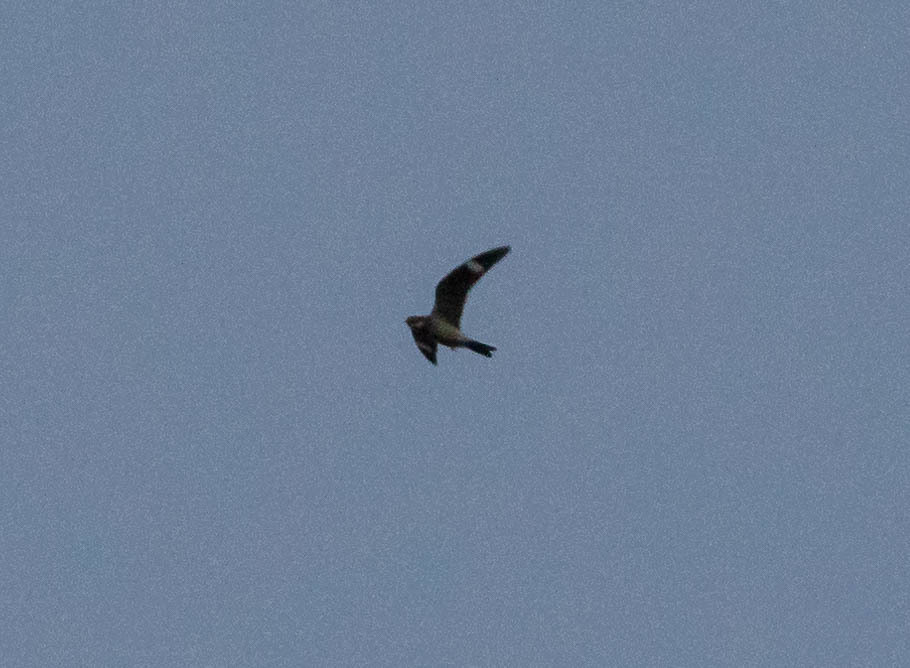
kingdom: Animalia
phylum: Chordata
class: Aves
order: Caprimulgiformes
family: Caprimulgidae
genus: Chordeiles
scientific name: Chordeiles minor
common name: Common nighthawk
